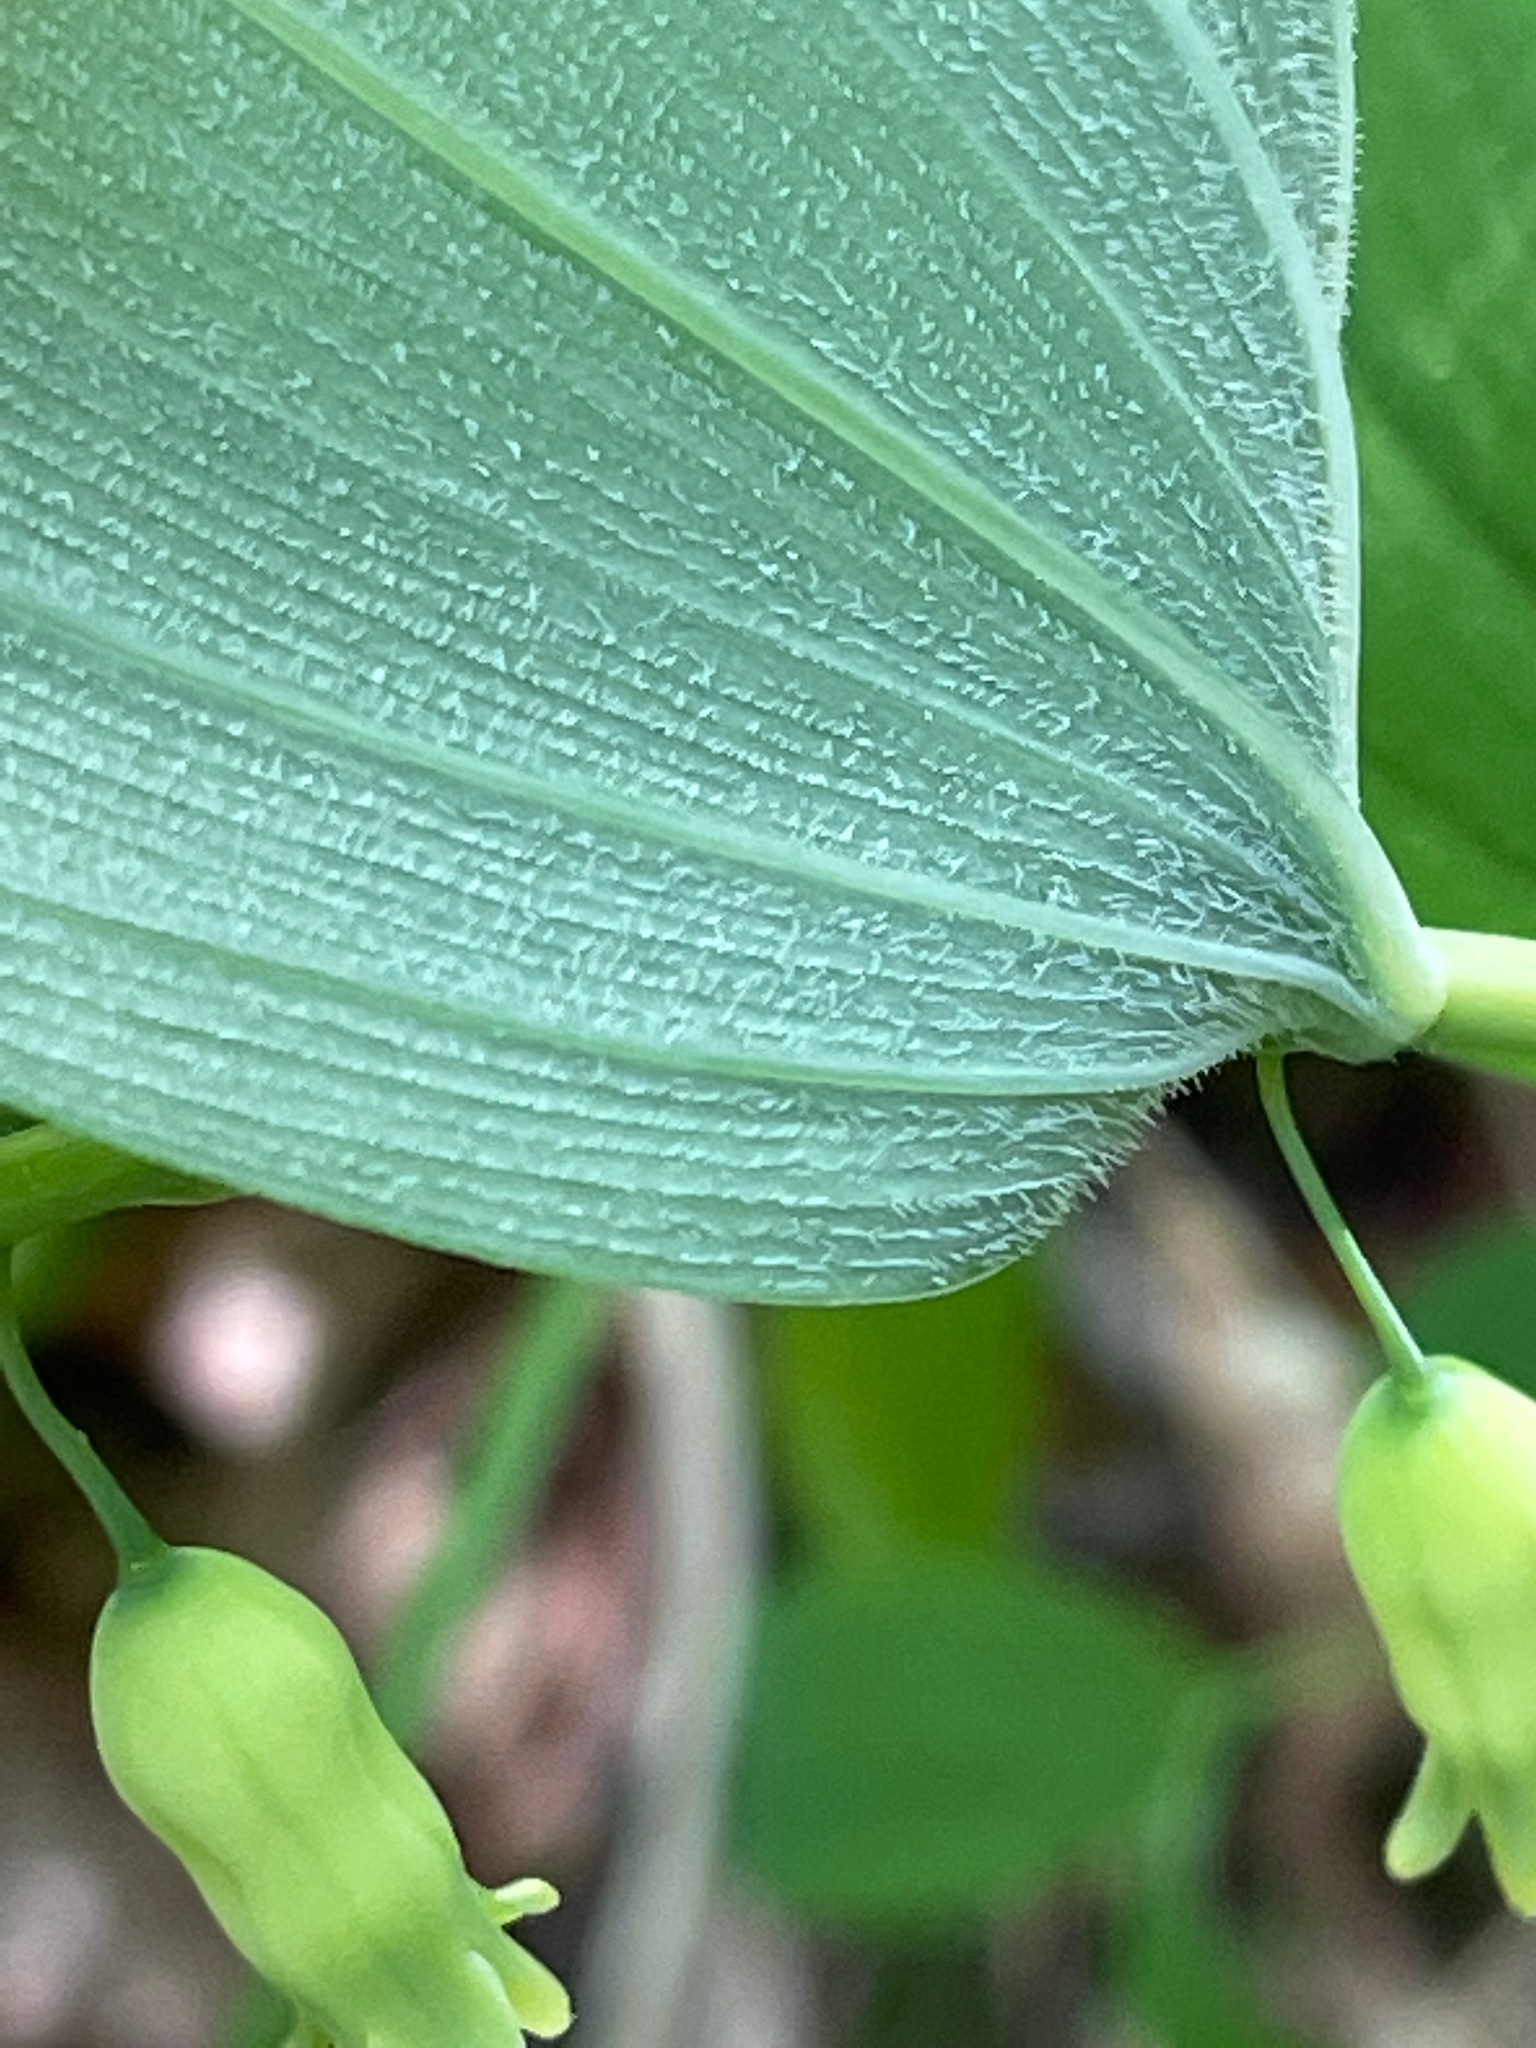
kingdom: Plantae
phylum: Tracheophyta
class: Liliopsida
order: Asparagales
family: Asparagaceae
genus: Polygonatum
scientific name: Polygonatum pubescens
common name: Downy solomon's seal
